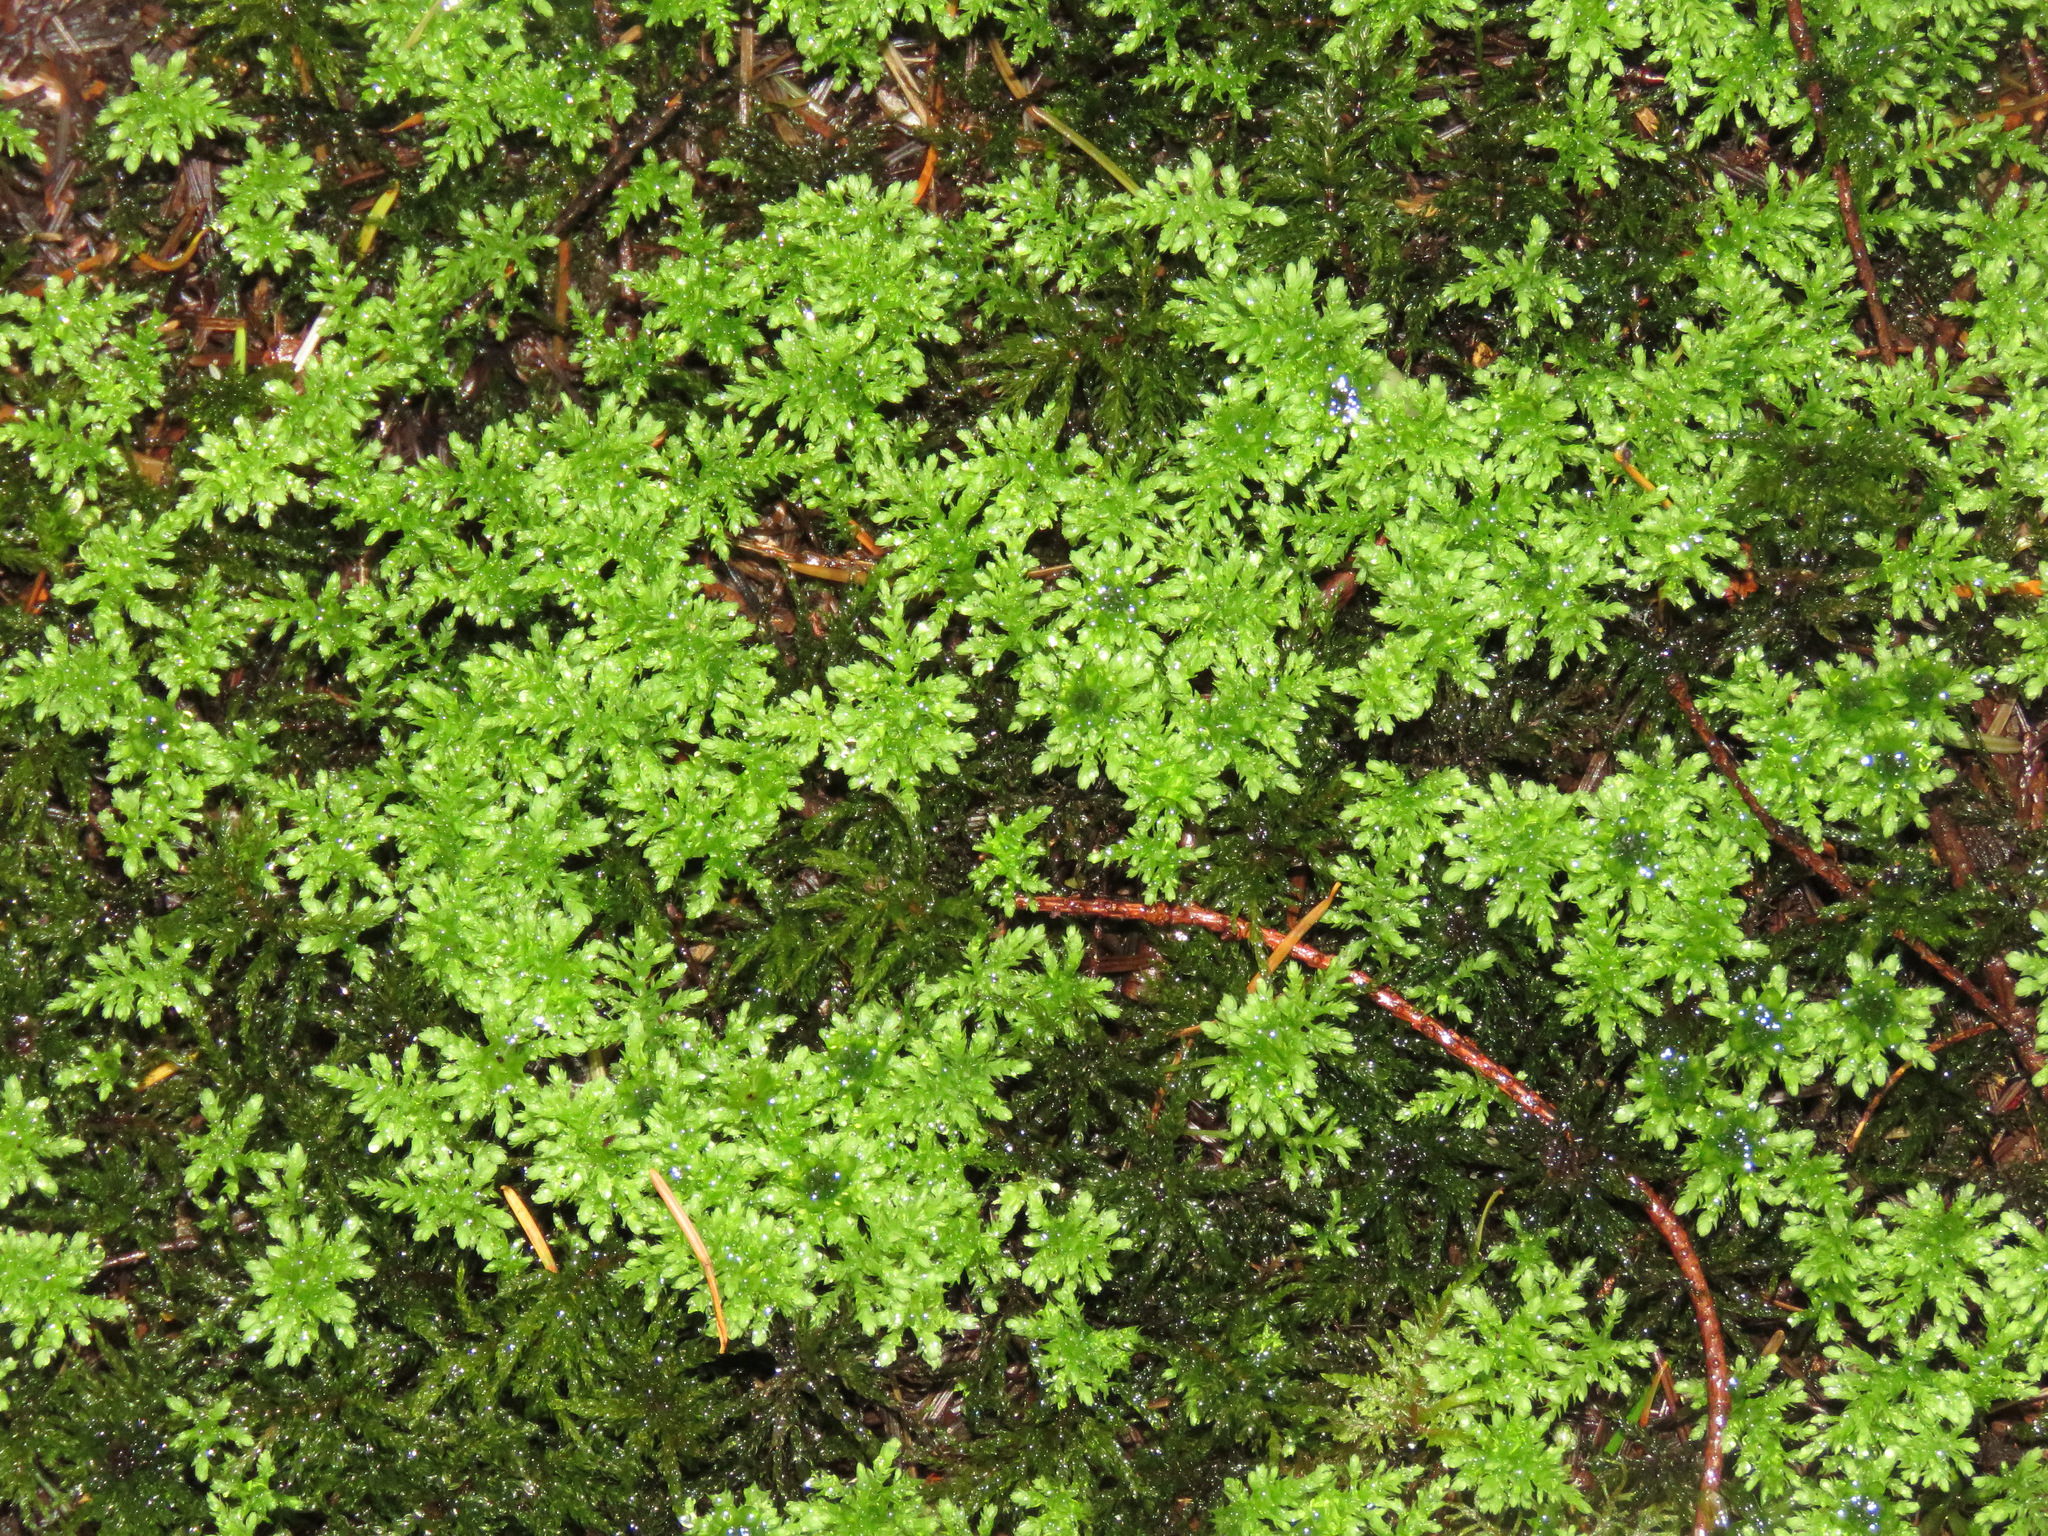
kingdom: Plantae
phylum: Bryophyta
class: Bryopsida
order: Bryales
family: Mniaceae
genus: Leucolepis
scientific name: Leucolepis acanthoneura
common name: Leucolepis umbrella moss
